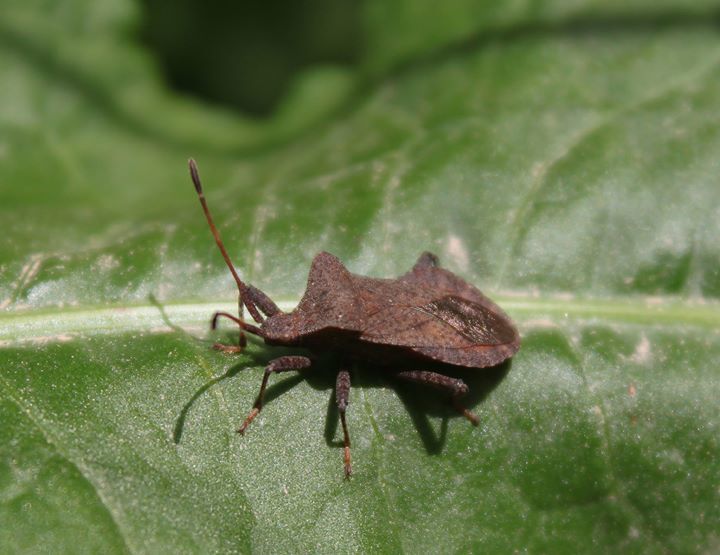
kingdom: Animalia
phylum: Arthropoda
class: Insecta
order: Hemiptera
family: Coreidae
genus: Coreus
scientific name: Coreus marginatus
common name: Dock bug
